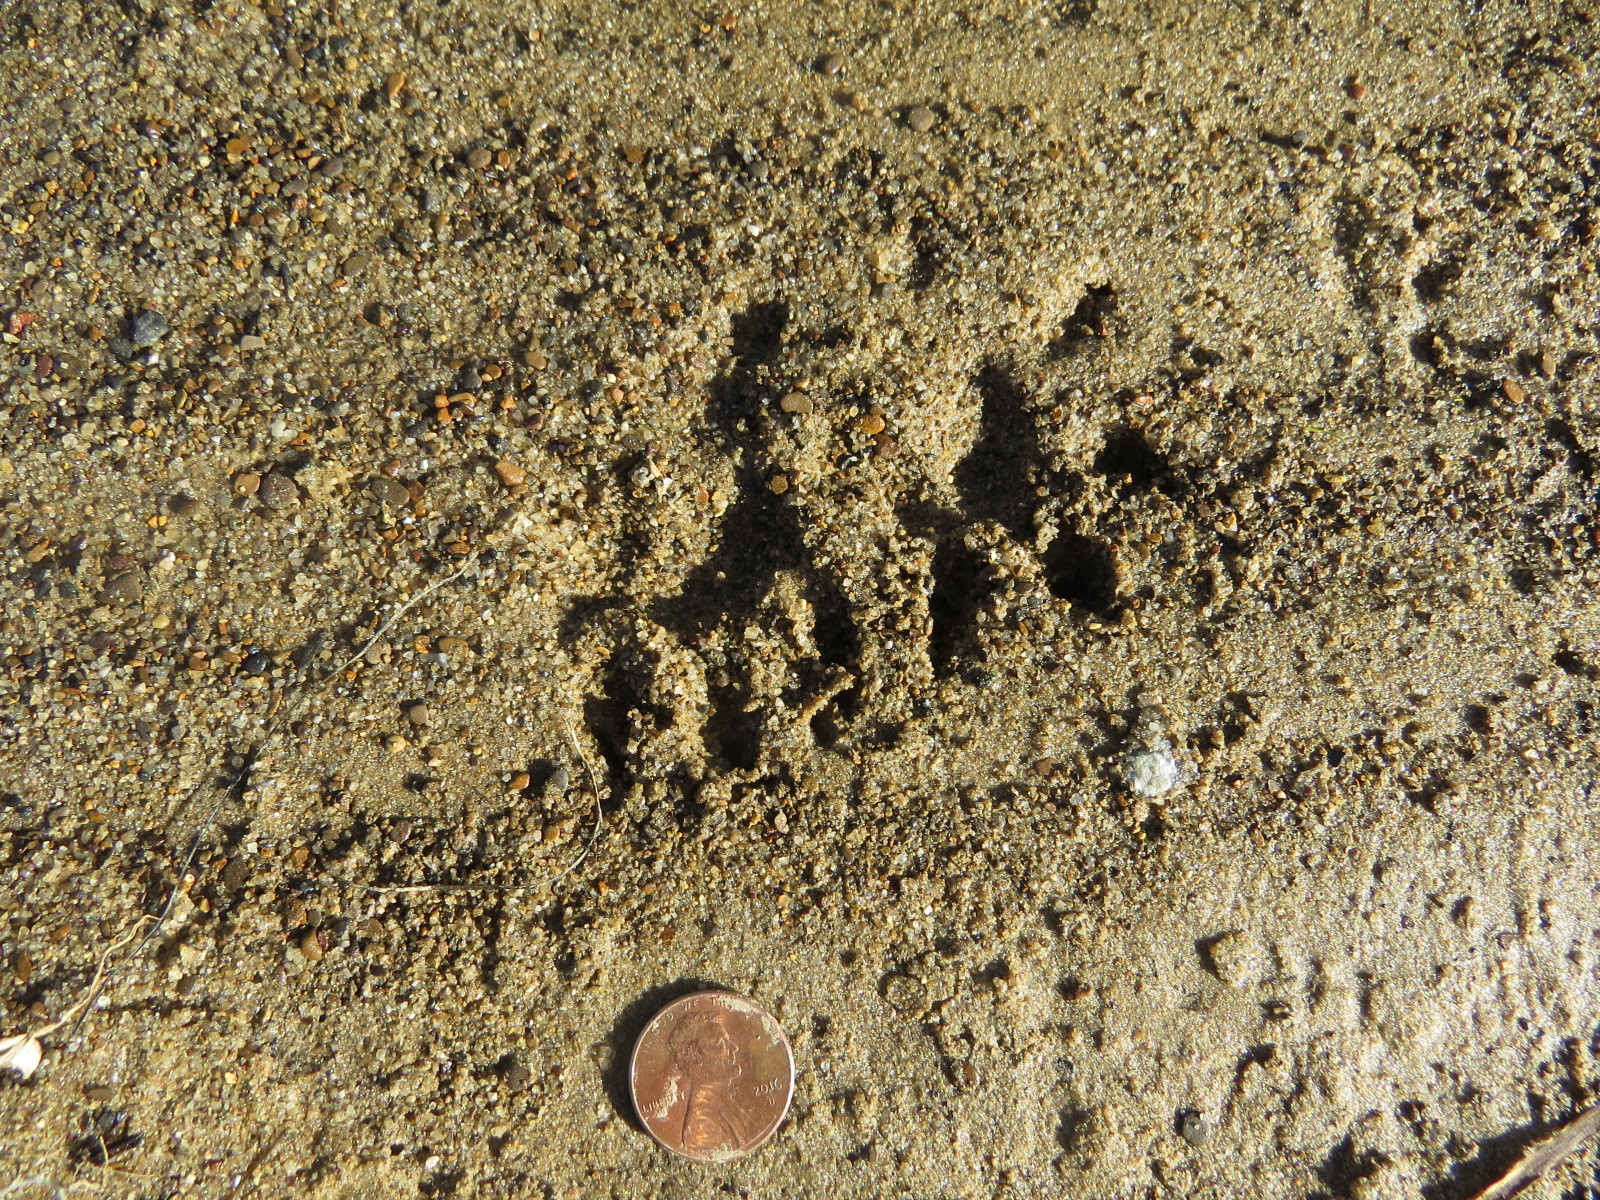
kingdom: Animalia
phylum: Chordata
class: Mammalia
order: Didelphimorphia
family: Didelphidae
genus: Didelphis
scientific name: Didelphis virginiana
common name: Virginia opossum
